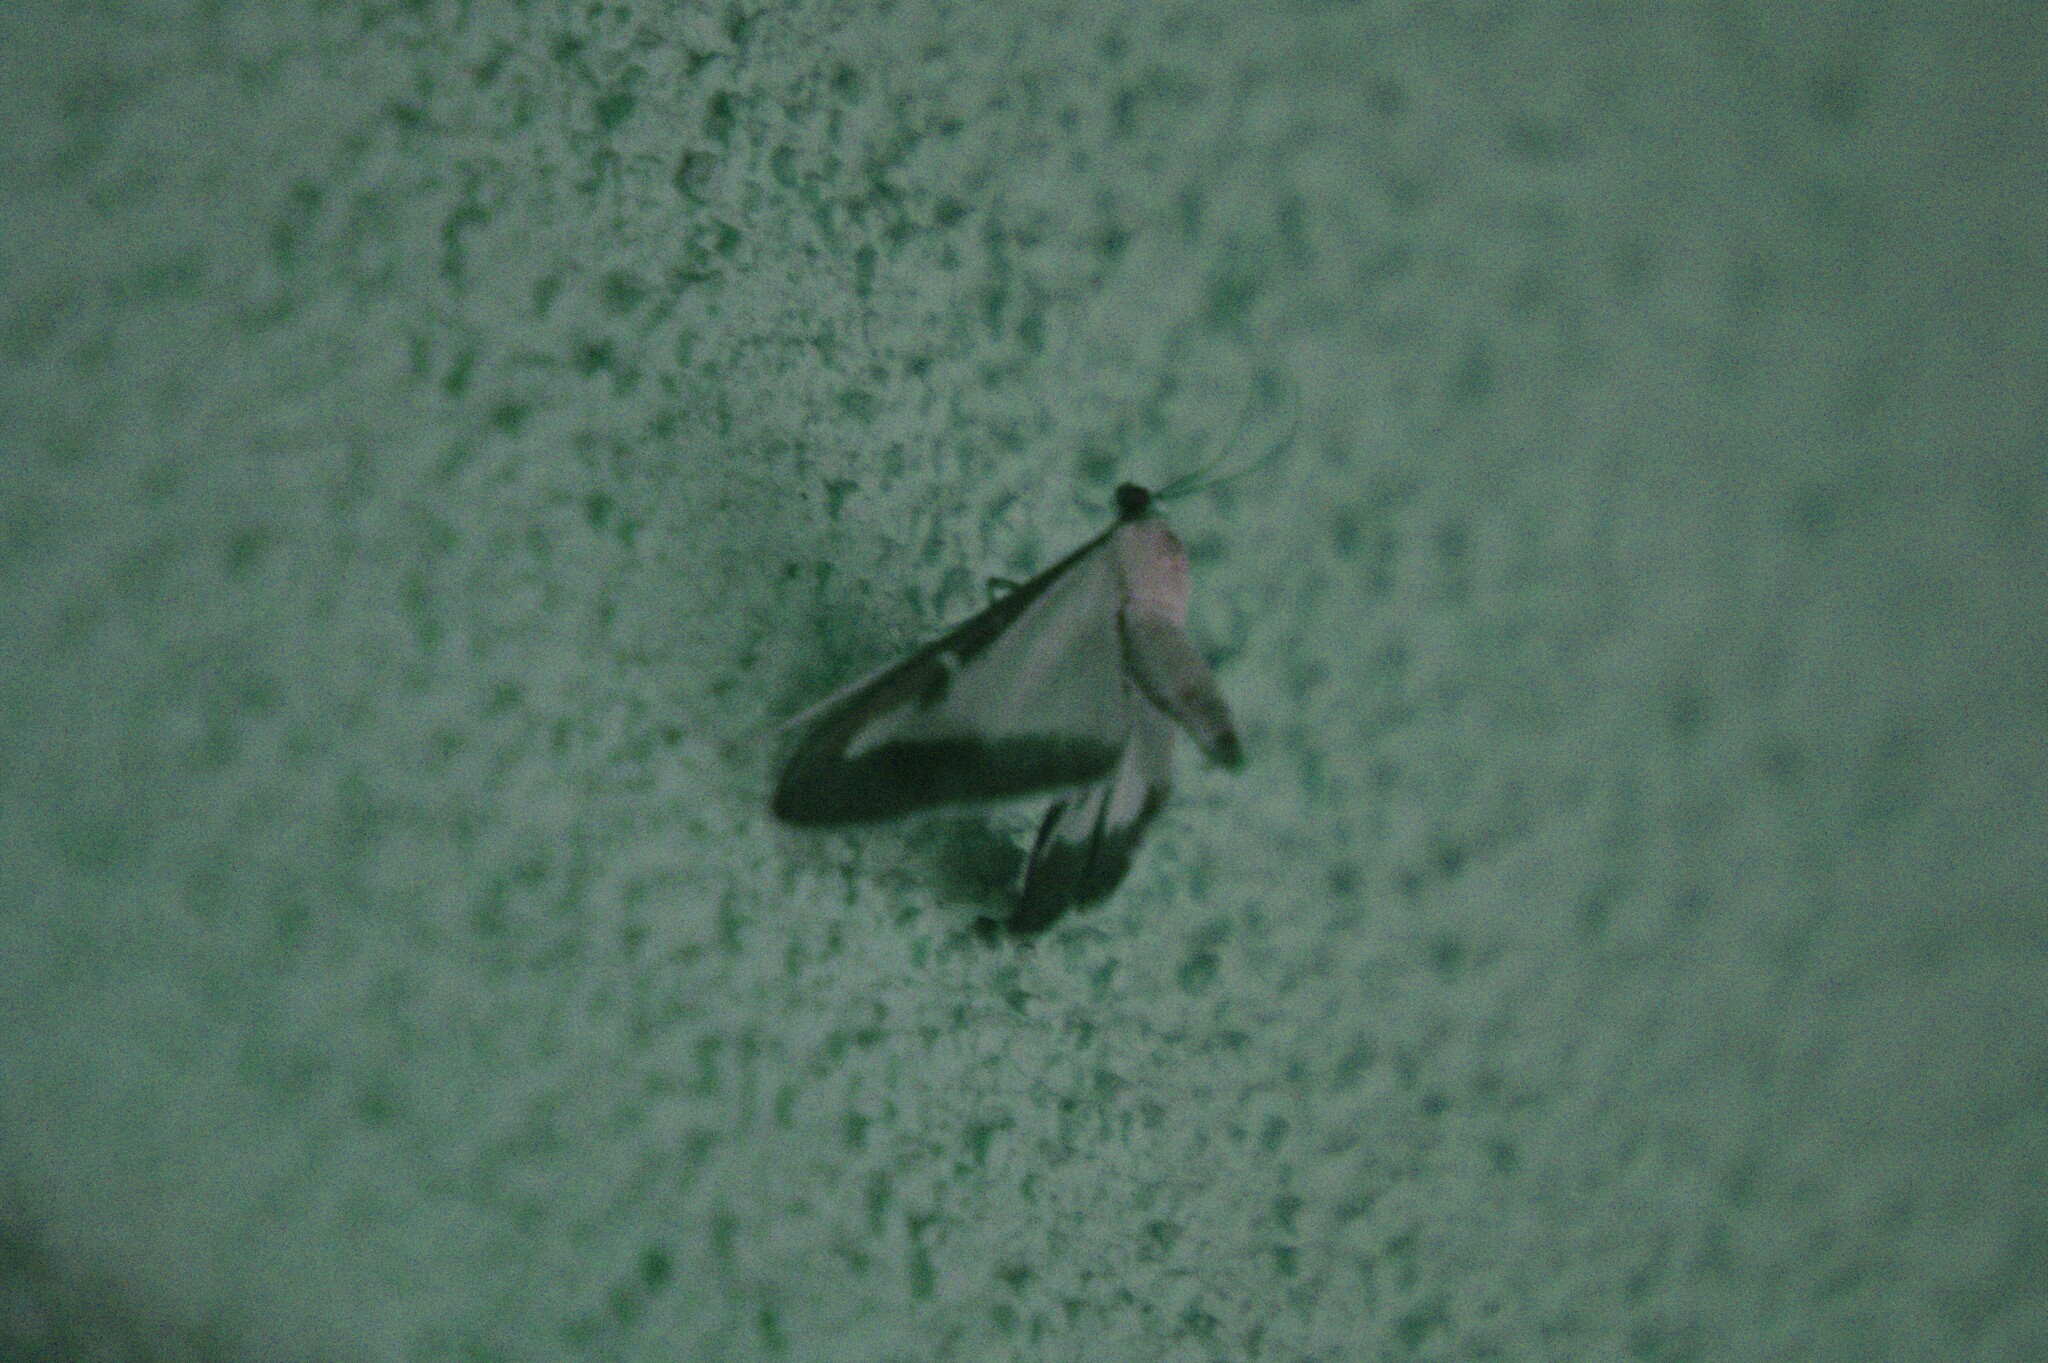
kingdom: Animalia
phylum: Arthropoda
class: Insecta
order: Lepidoptera
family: Crambidae
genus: Cydalima
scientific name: Cydalima perspectalis
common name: Box tree moth
